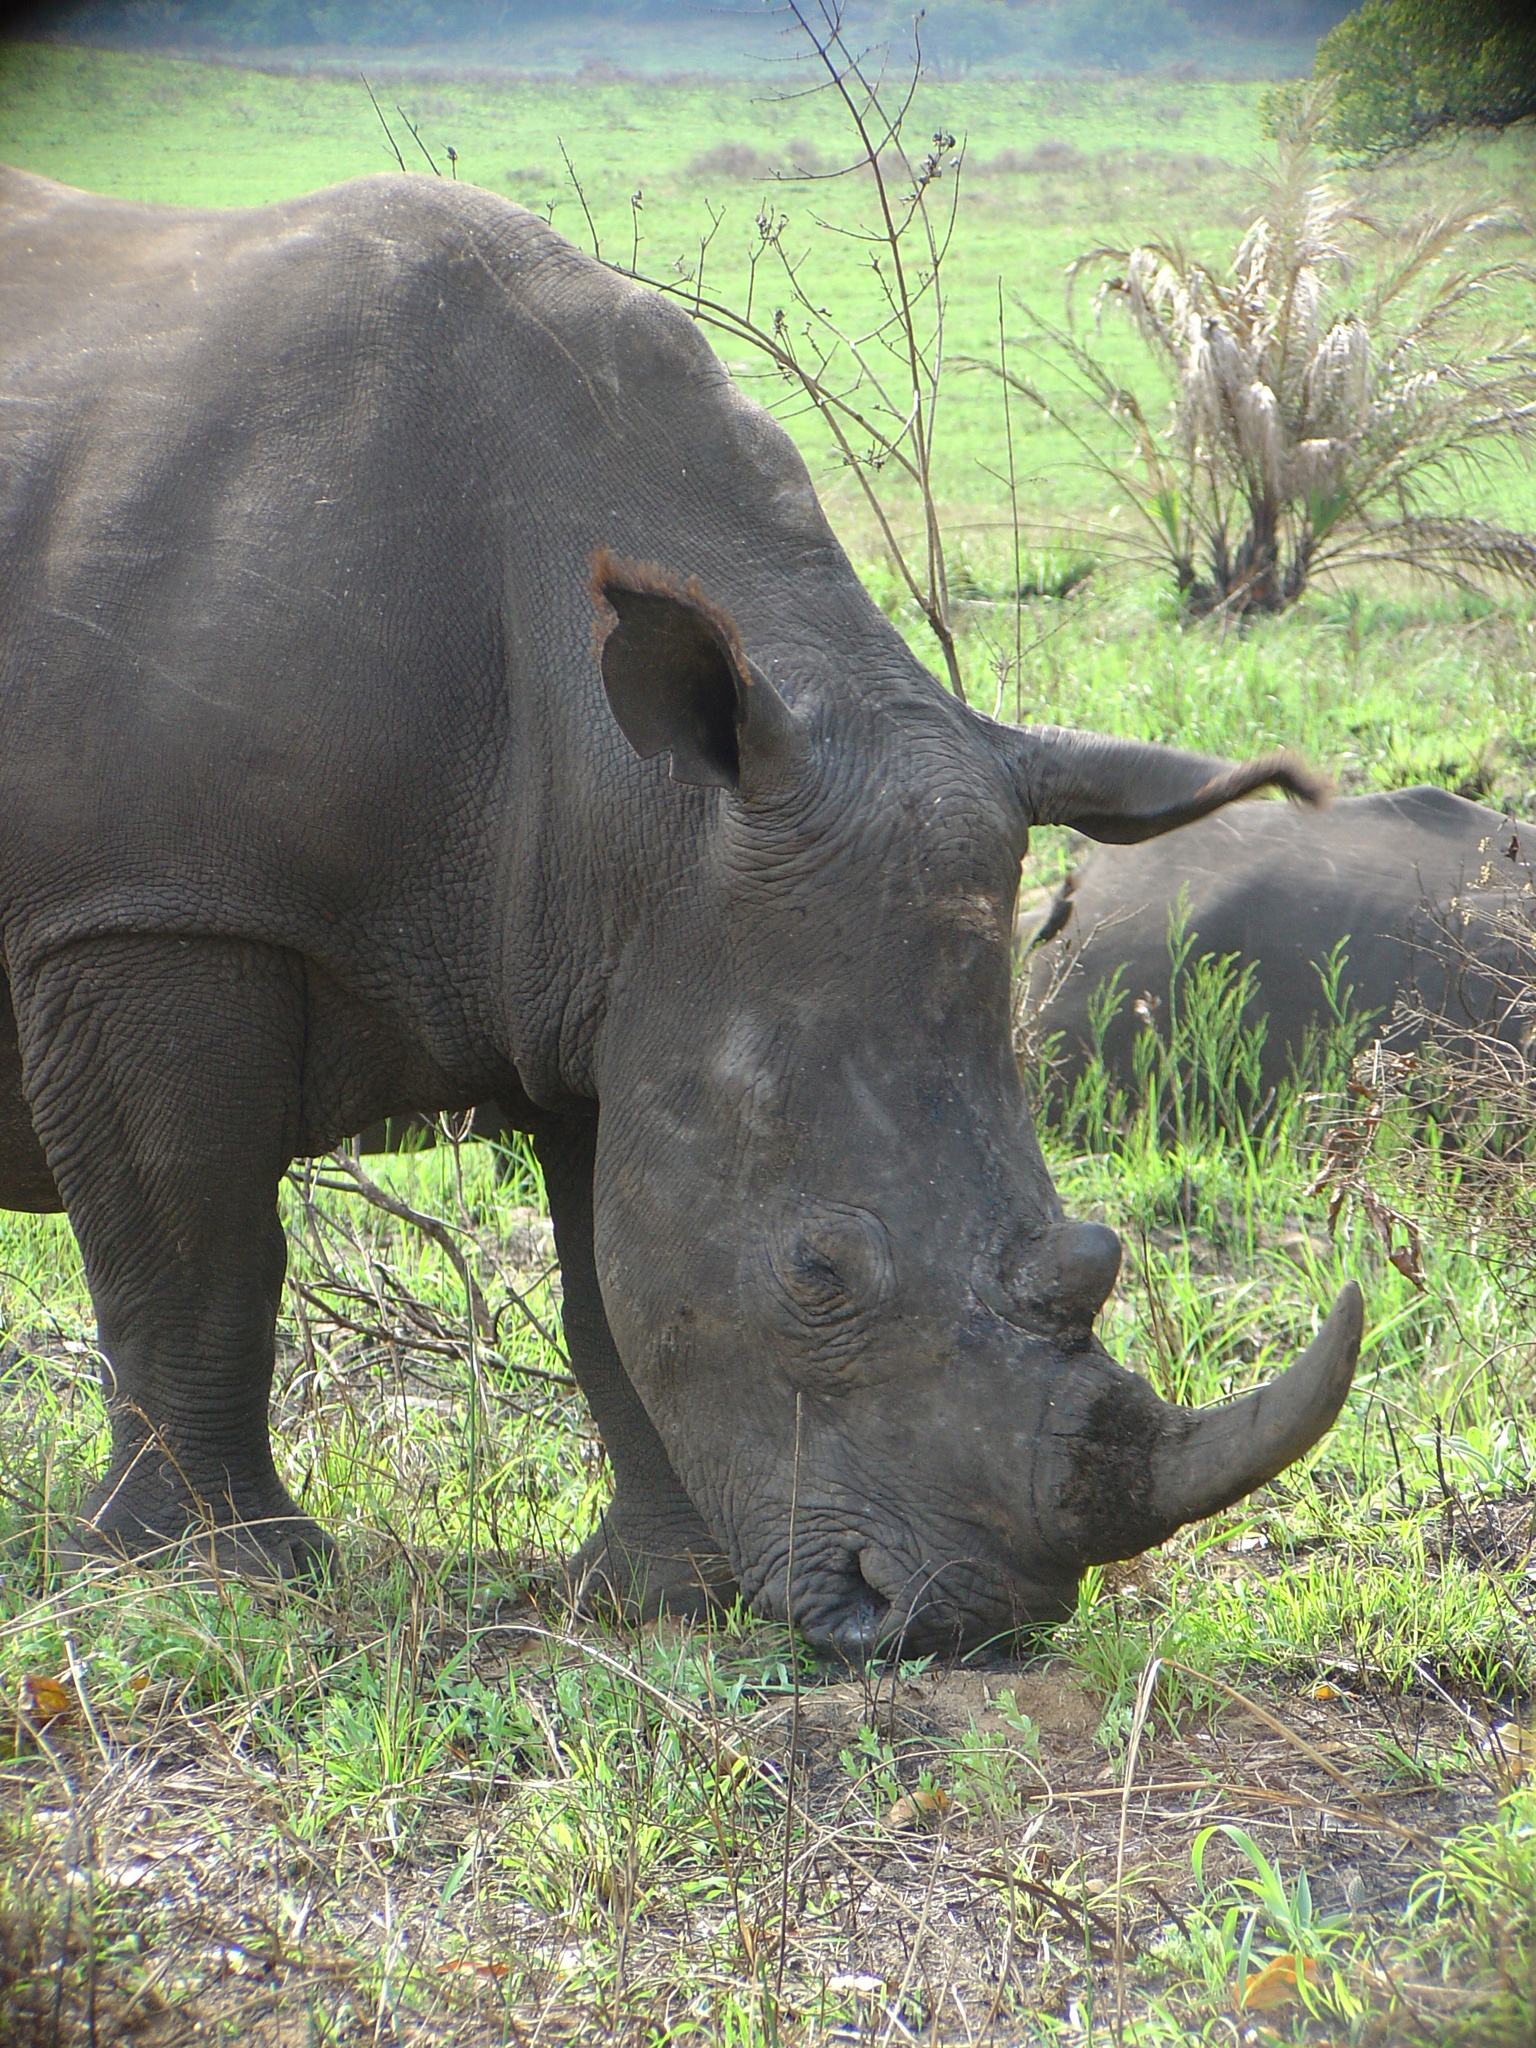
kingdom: Animalia
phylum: Chordata
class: Mammalia
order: Perissodactyla
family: Rhinocerotidae
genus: Ceratotherium
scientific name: Ceratotherium simum
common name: White rhinoceros
